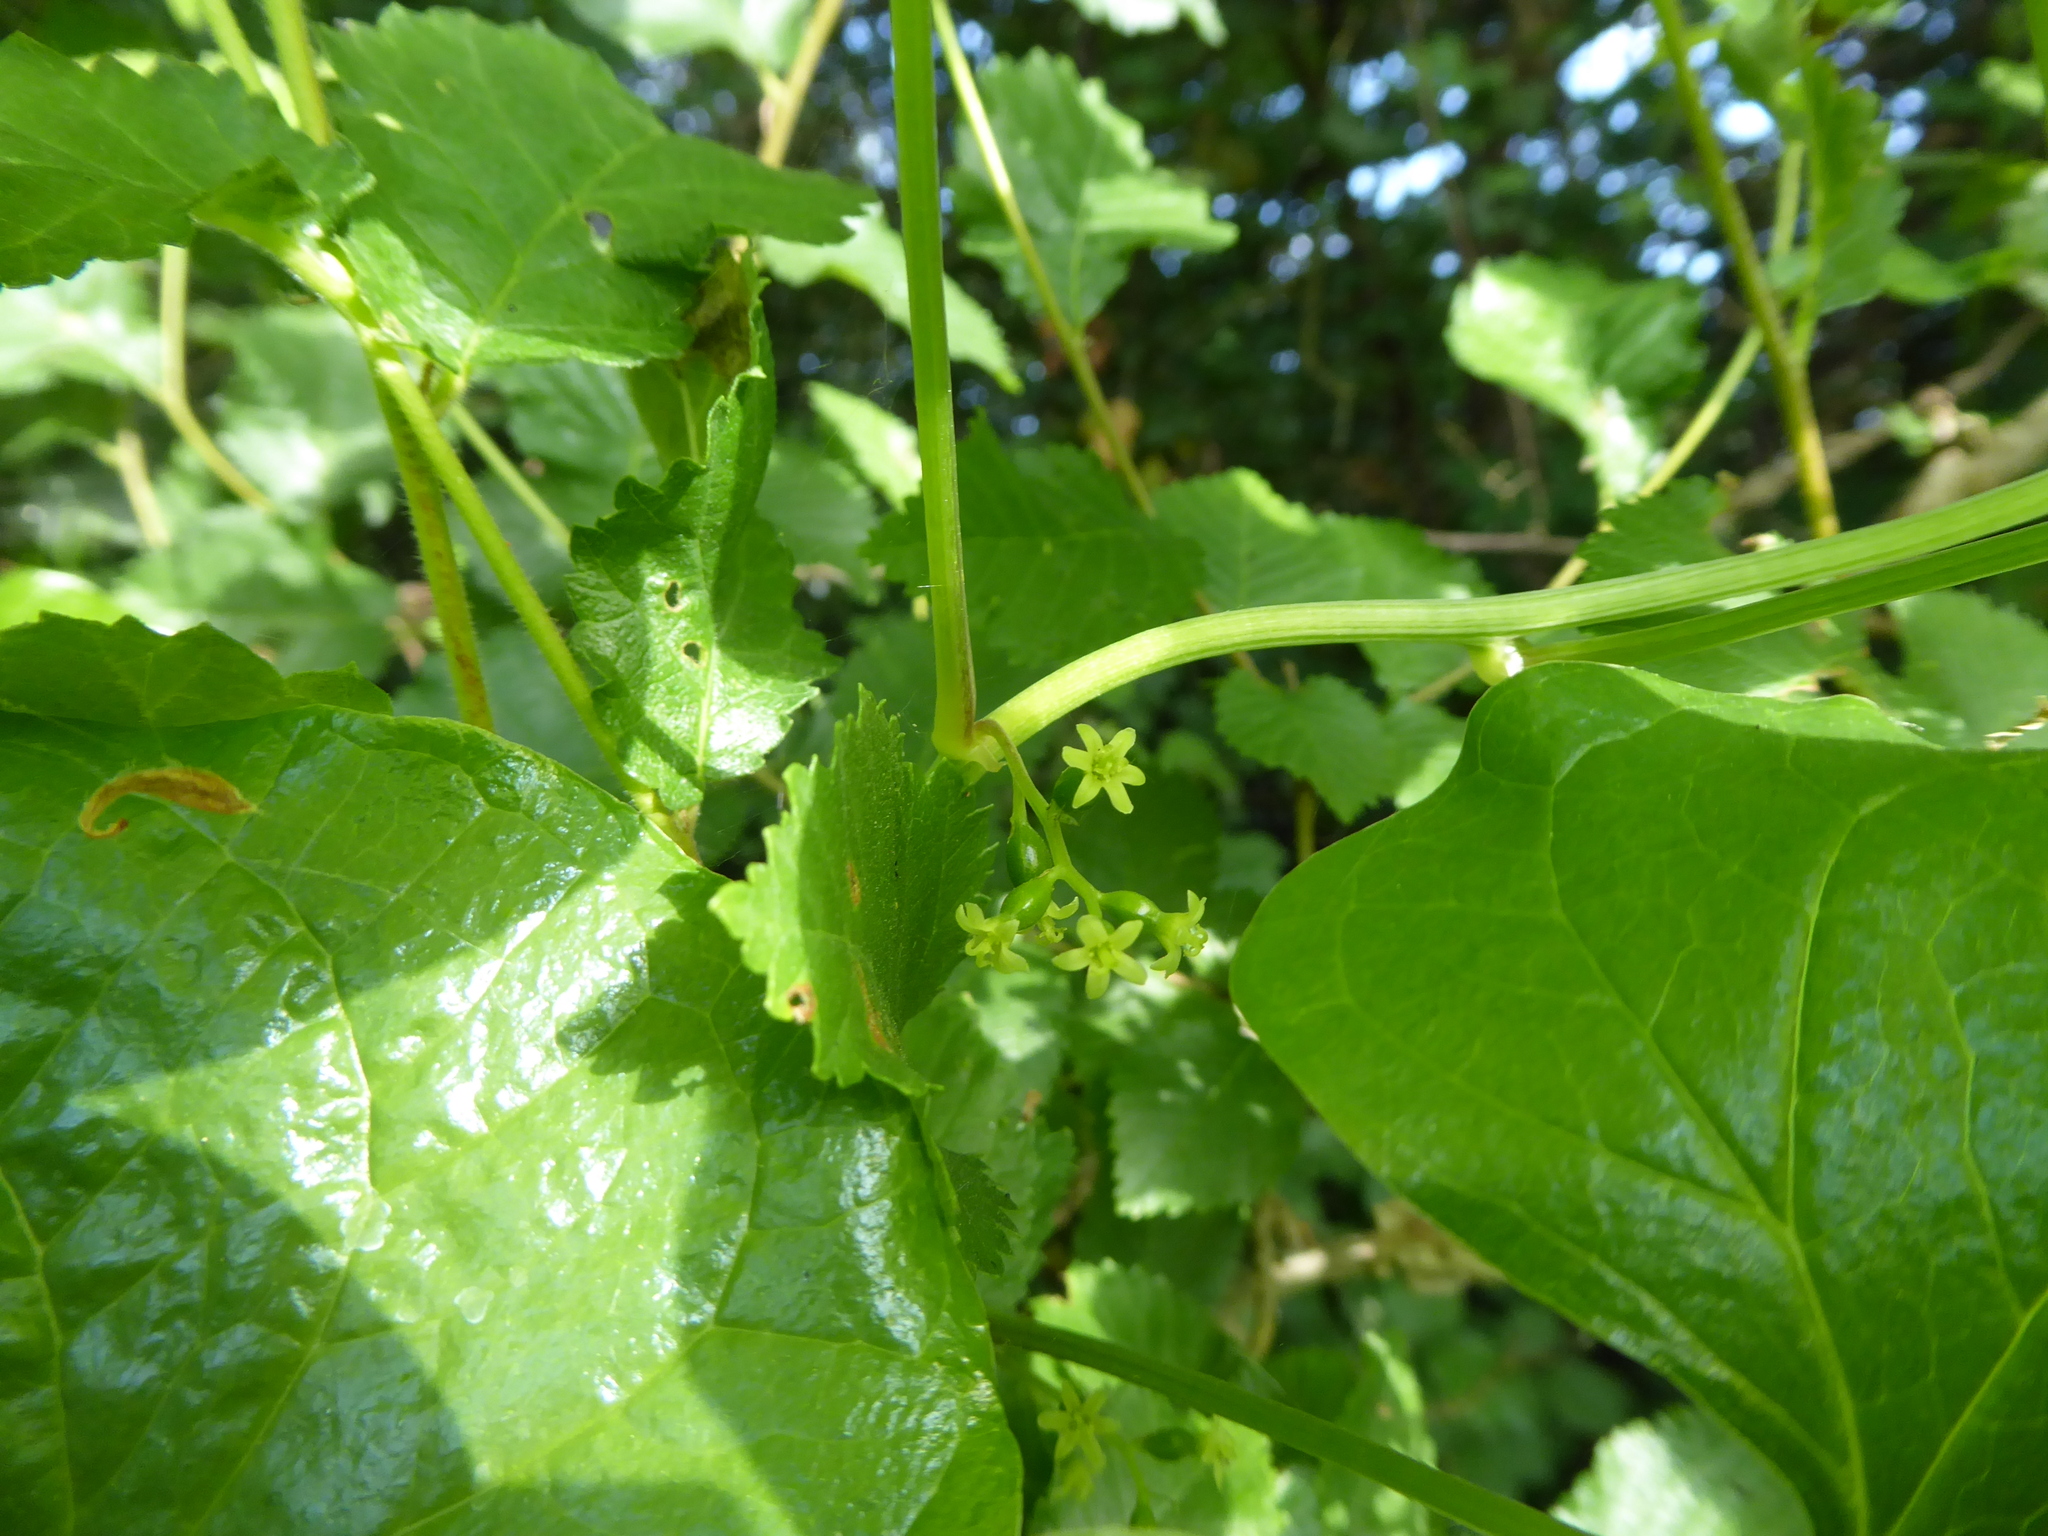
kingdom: Plantae
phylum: Tracheophyta
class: Liliopsida
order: Dioscoreales
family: Dioscoreaceae
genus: Dioscorea
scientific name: Dioscorea communis
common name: Black-bindweed
